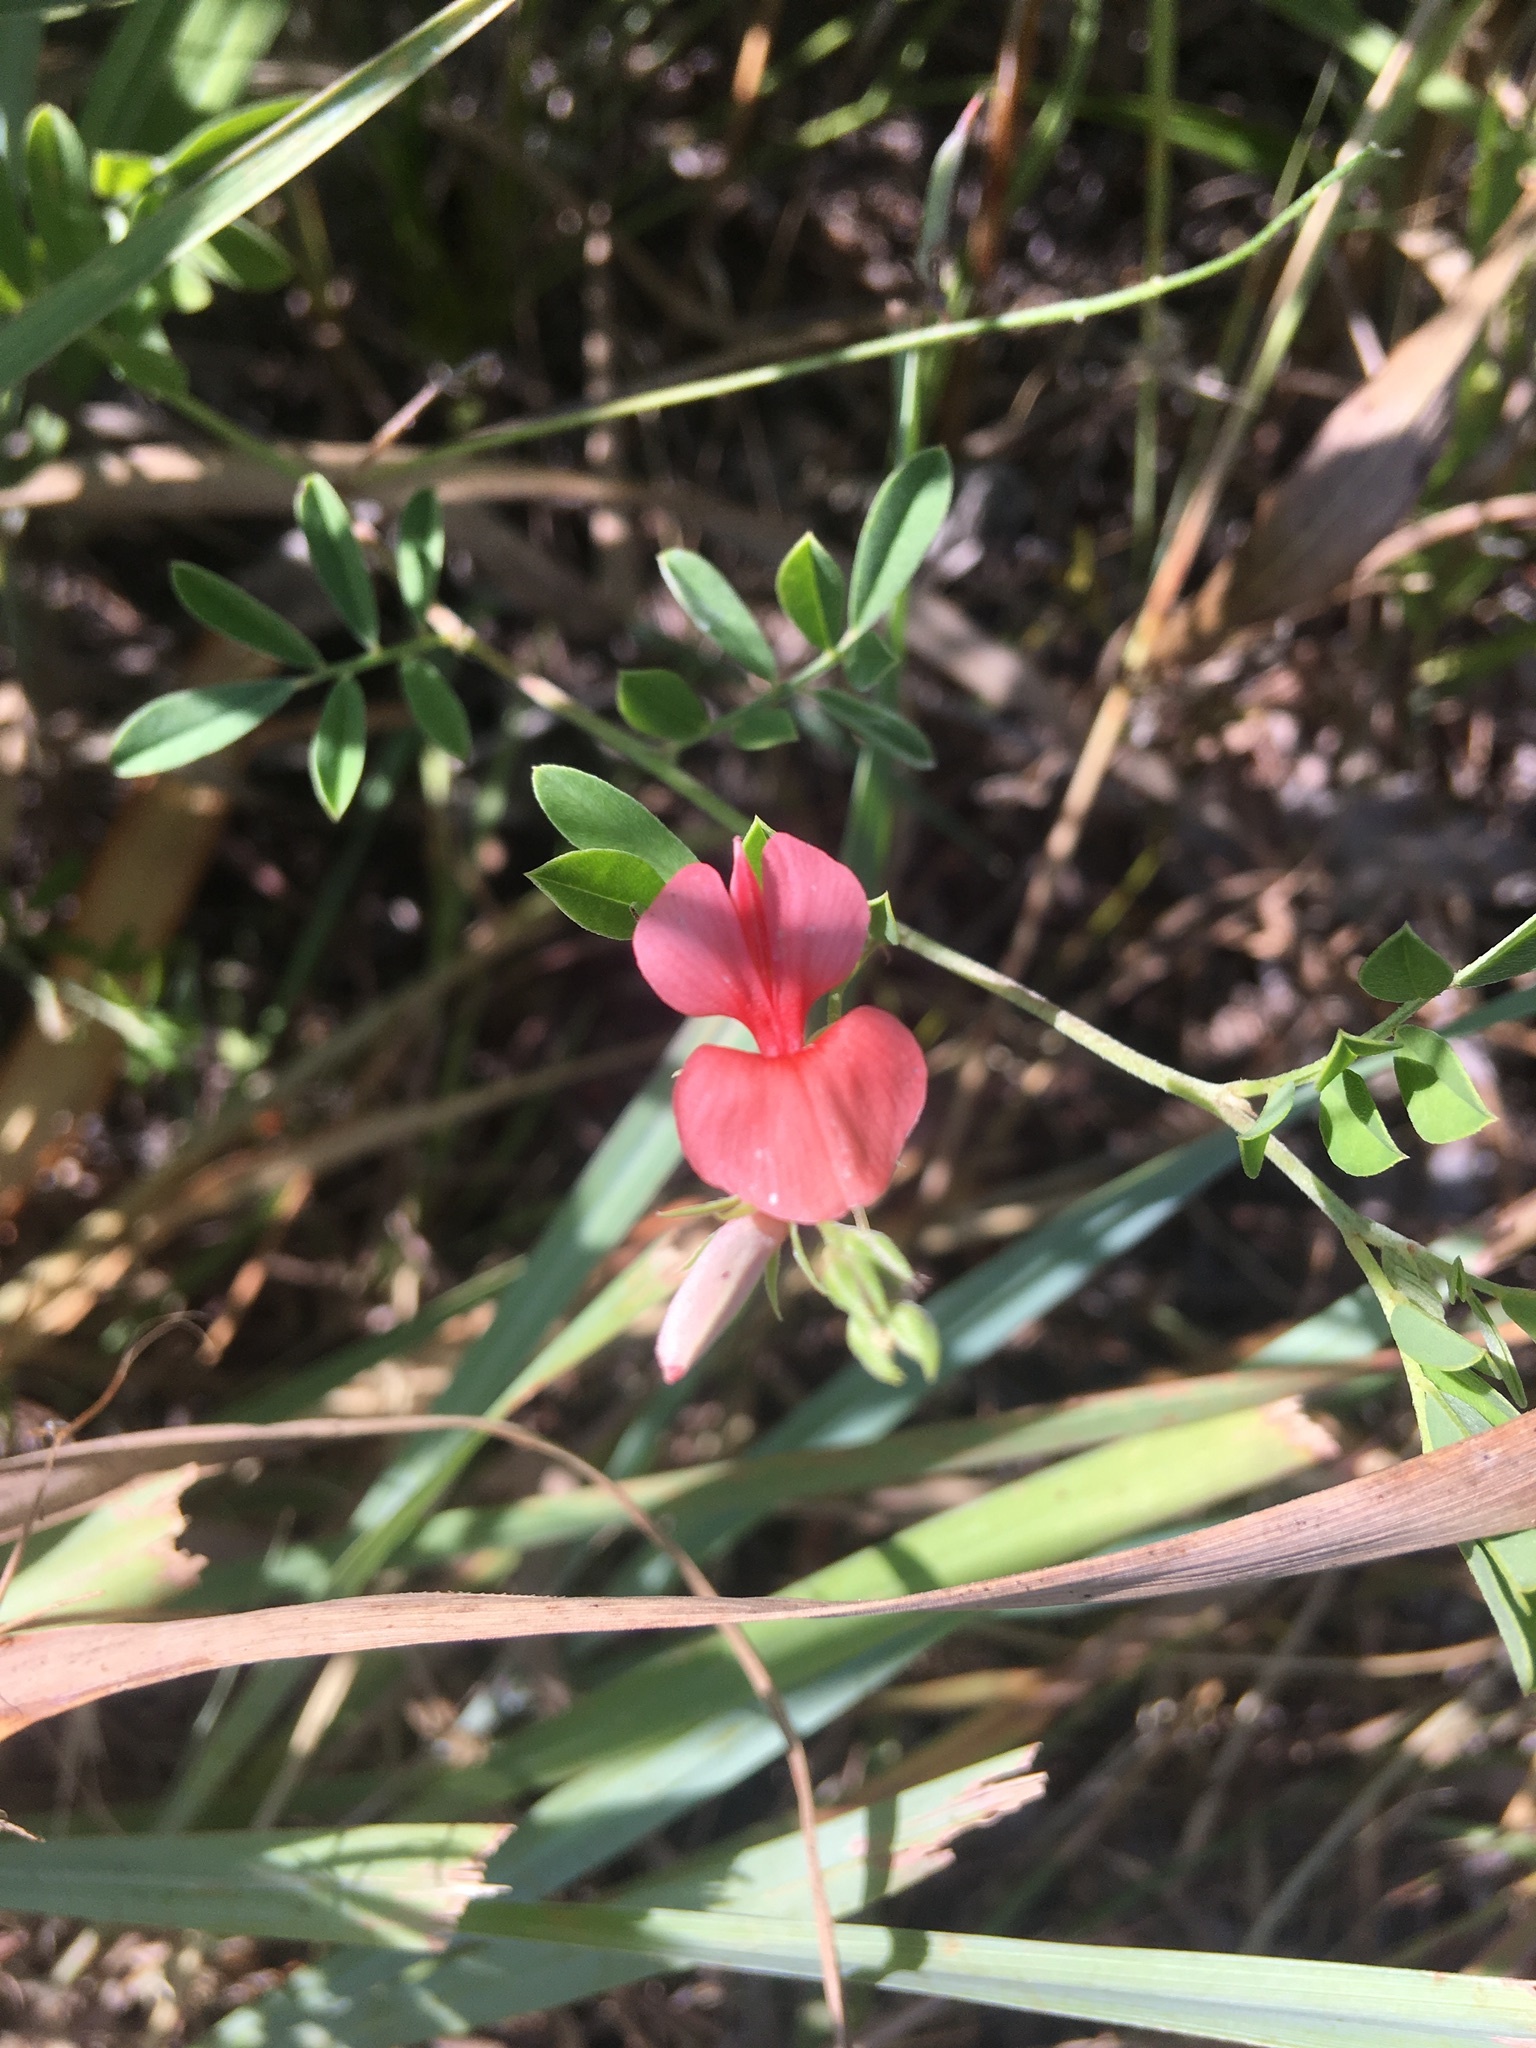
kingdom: Plantae
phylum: Tracheophyta
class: Magnoliopsida
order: Fabales
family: Fabaceae
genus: Indigofera
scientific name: Indigofera miniata
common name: Coast indigo
